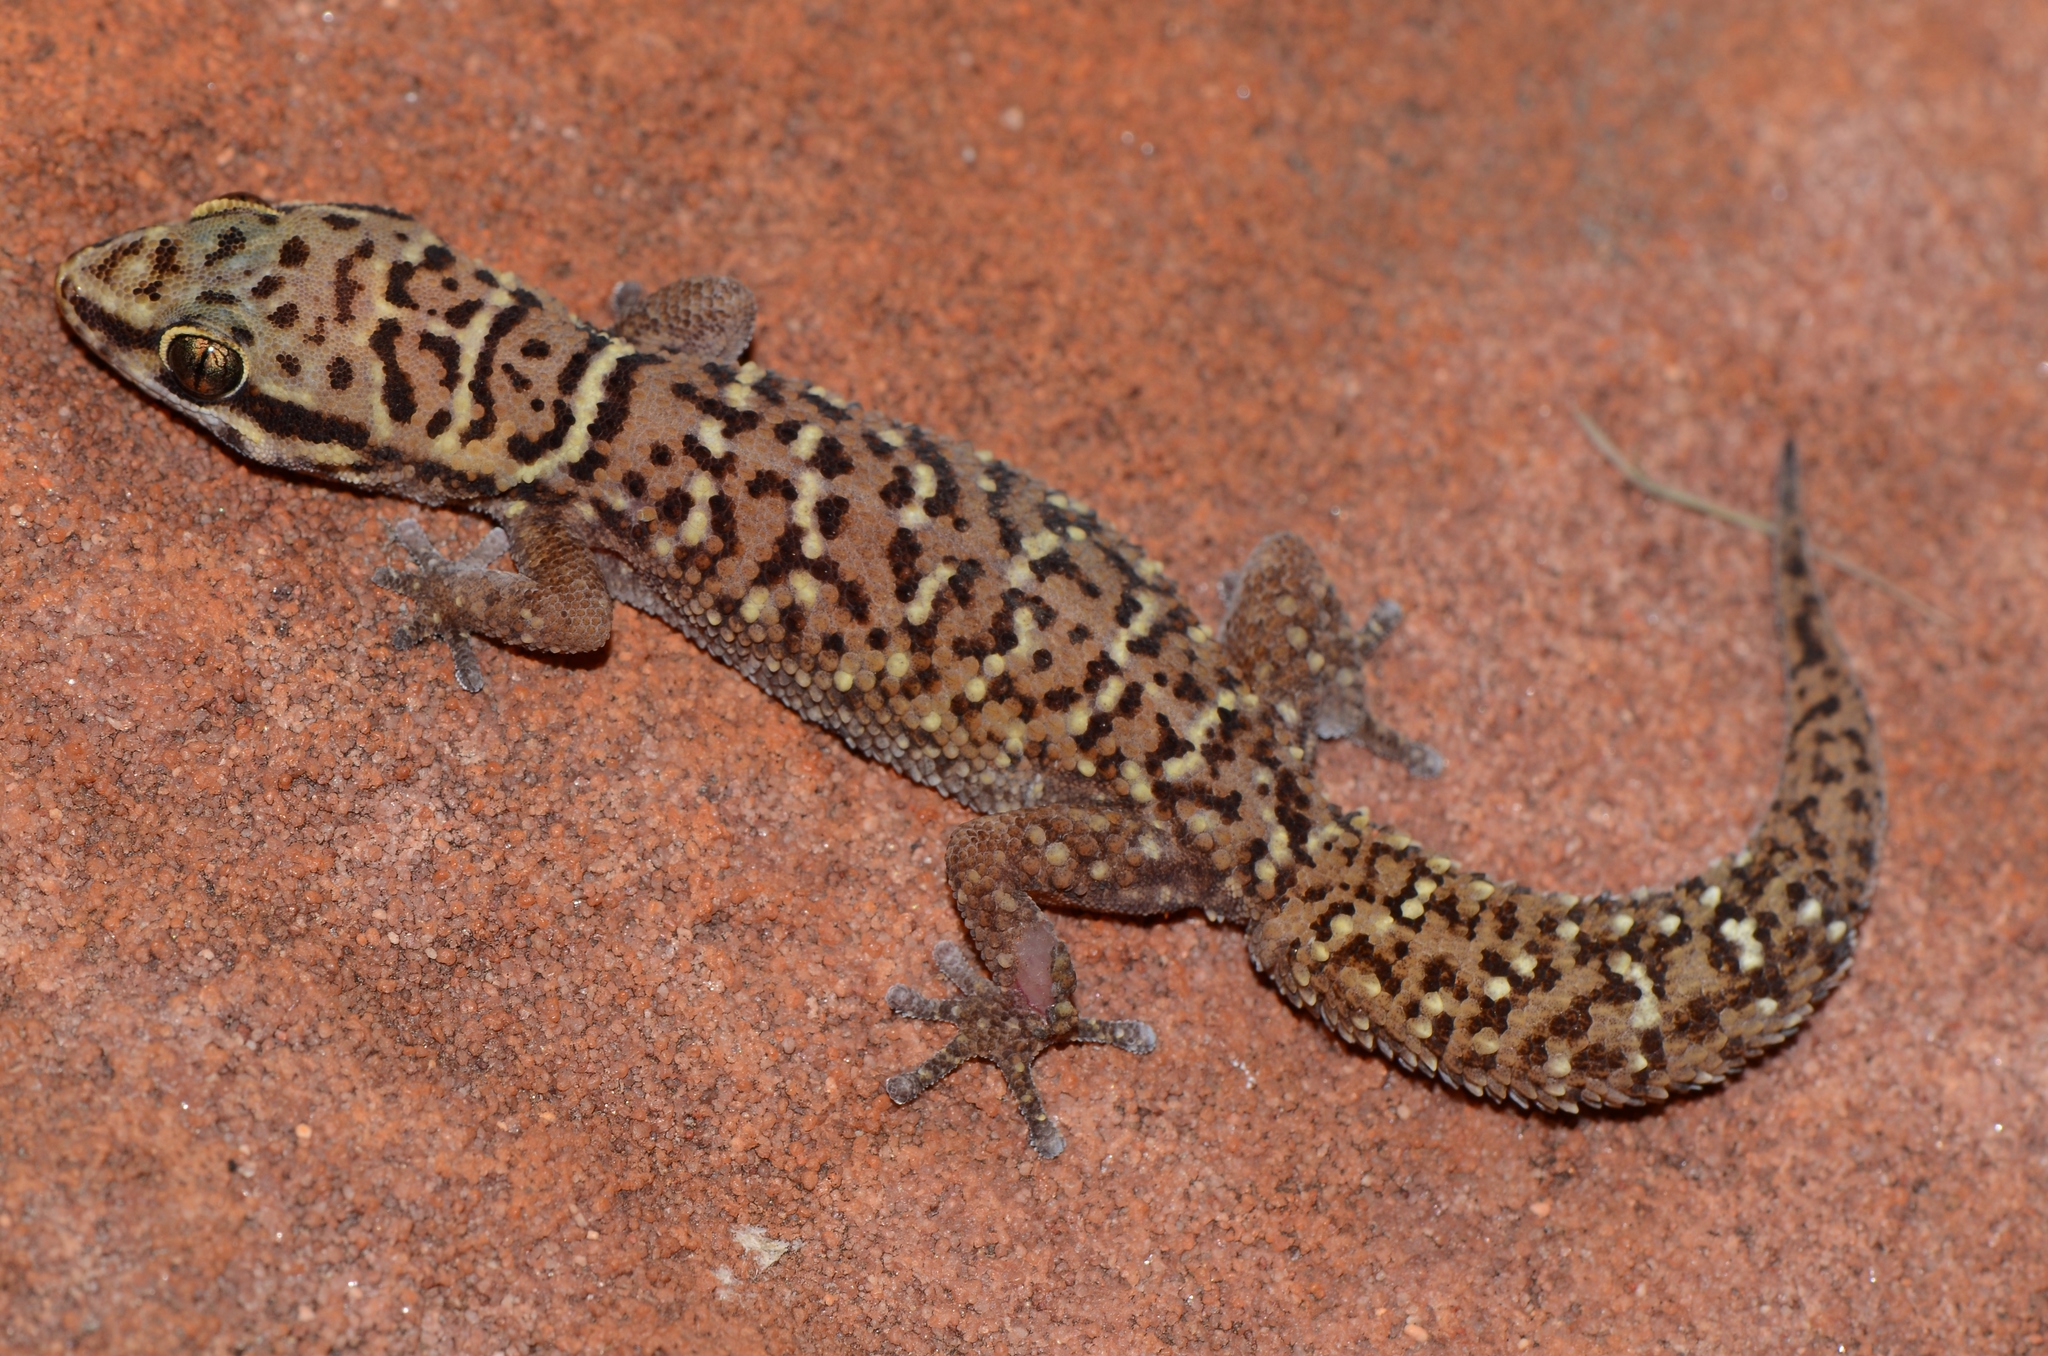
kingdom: Animalia
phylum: Chordata
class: Squamata
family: Gekkonidae
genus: Pachydactylus
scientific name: Pachydactylus affinis
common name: Transvaal gecko
